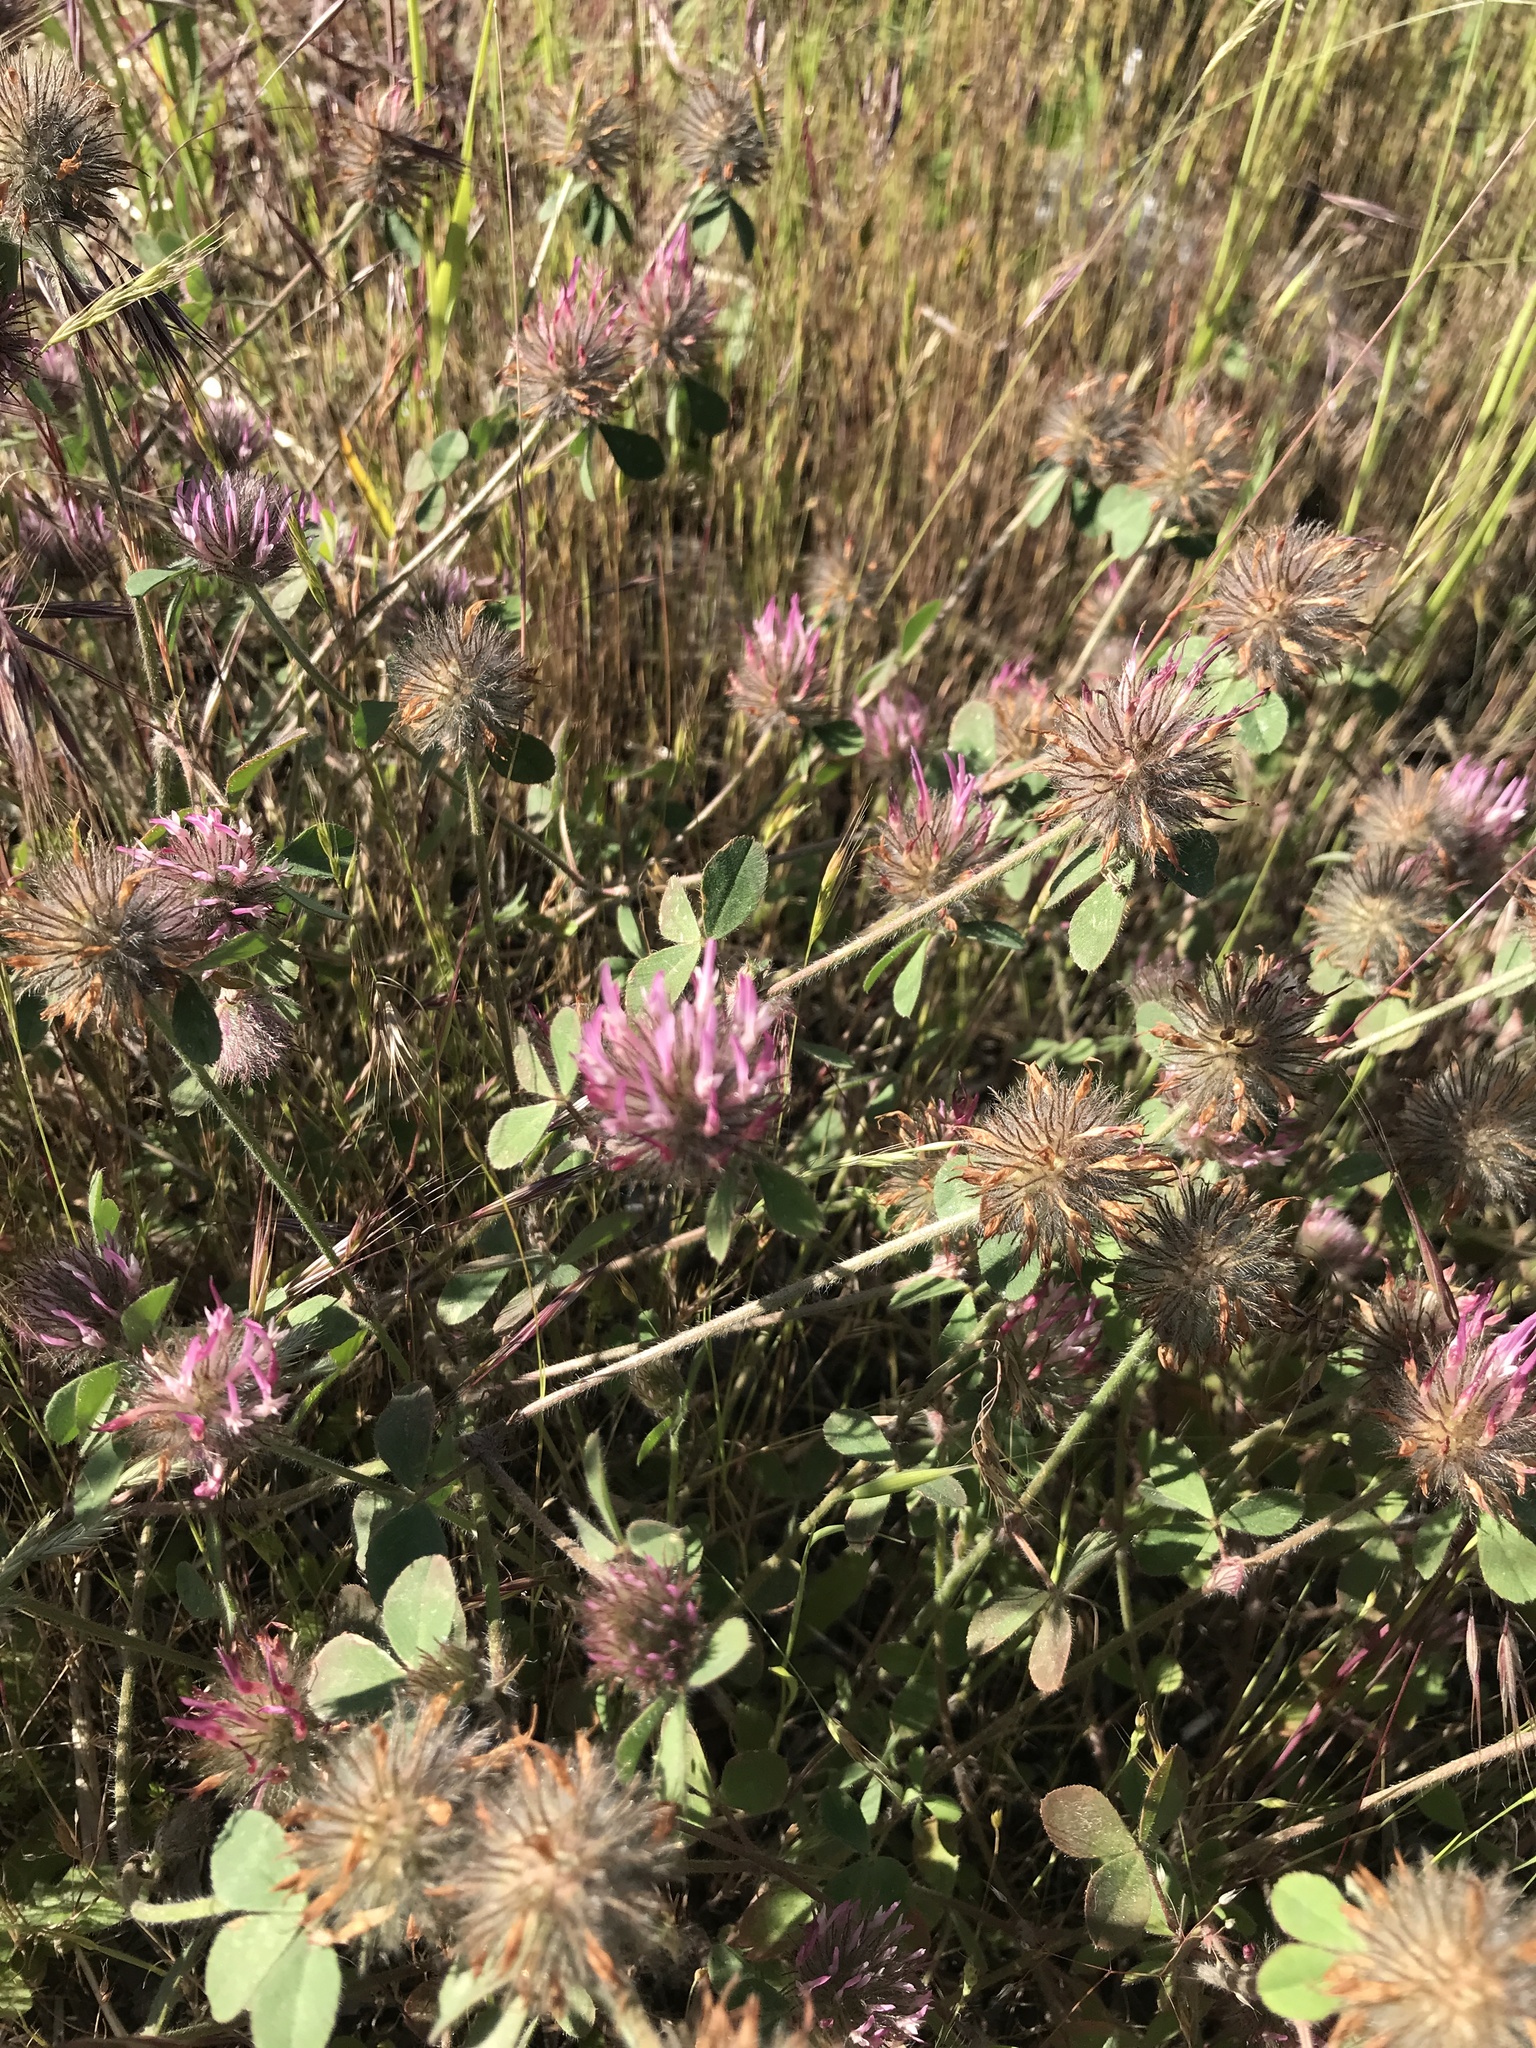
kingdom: Plantae
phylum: Tracheophyta
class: Magnoliopsida
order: Fabales
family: Fabaceae
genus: Trifolium
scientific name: Trifolium hirtum
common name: Rose clover
